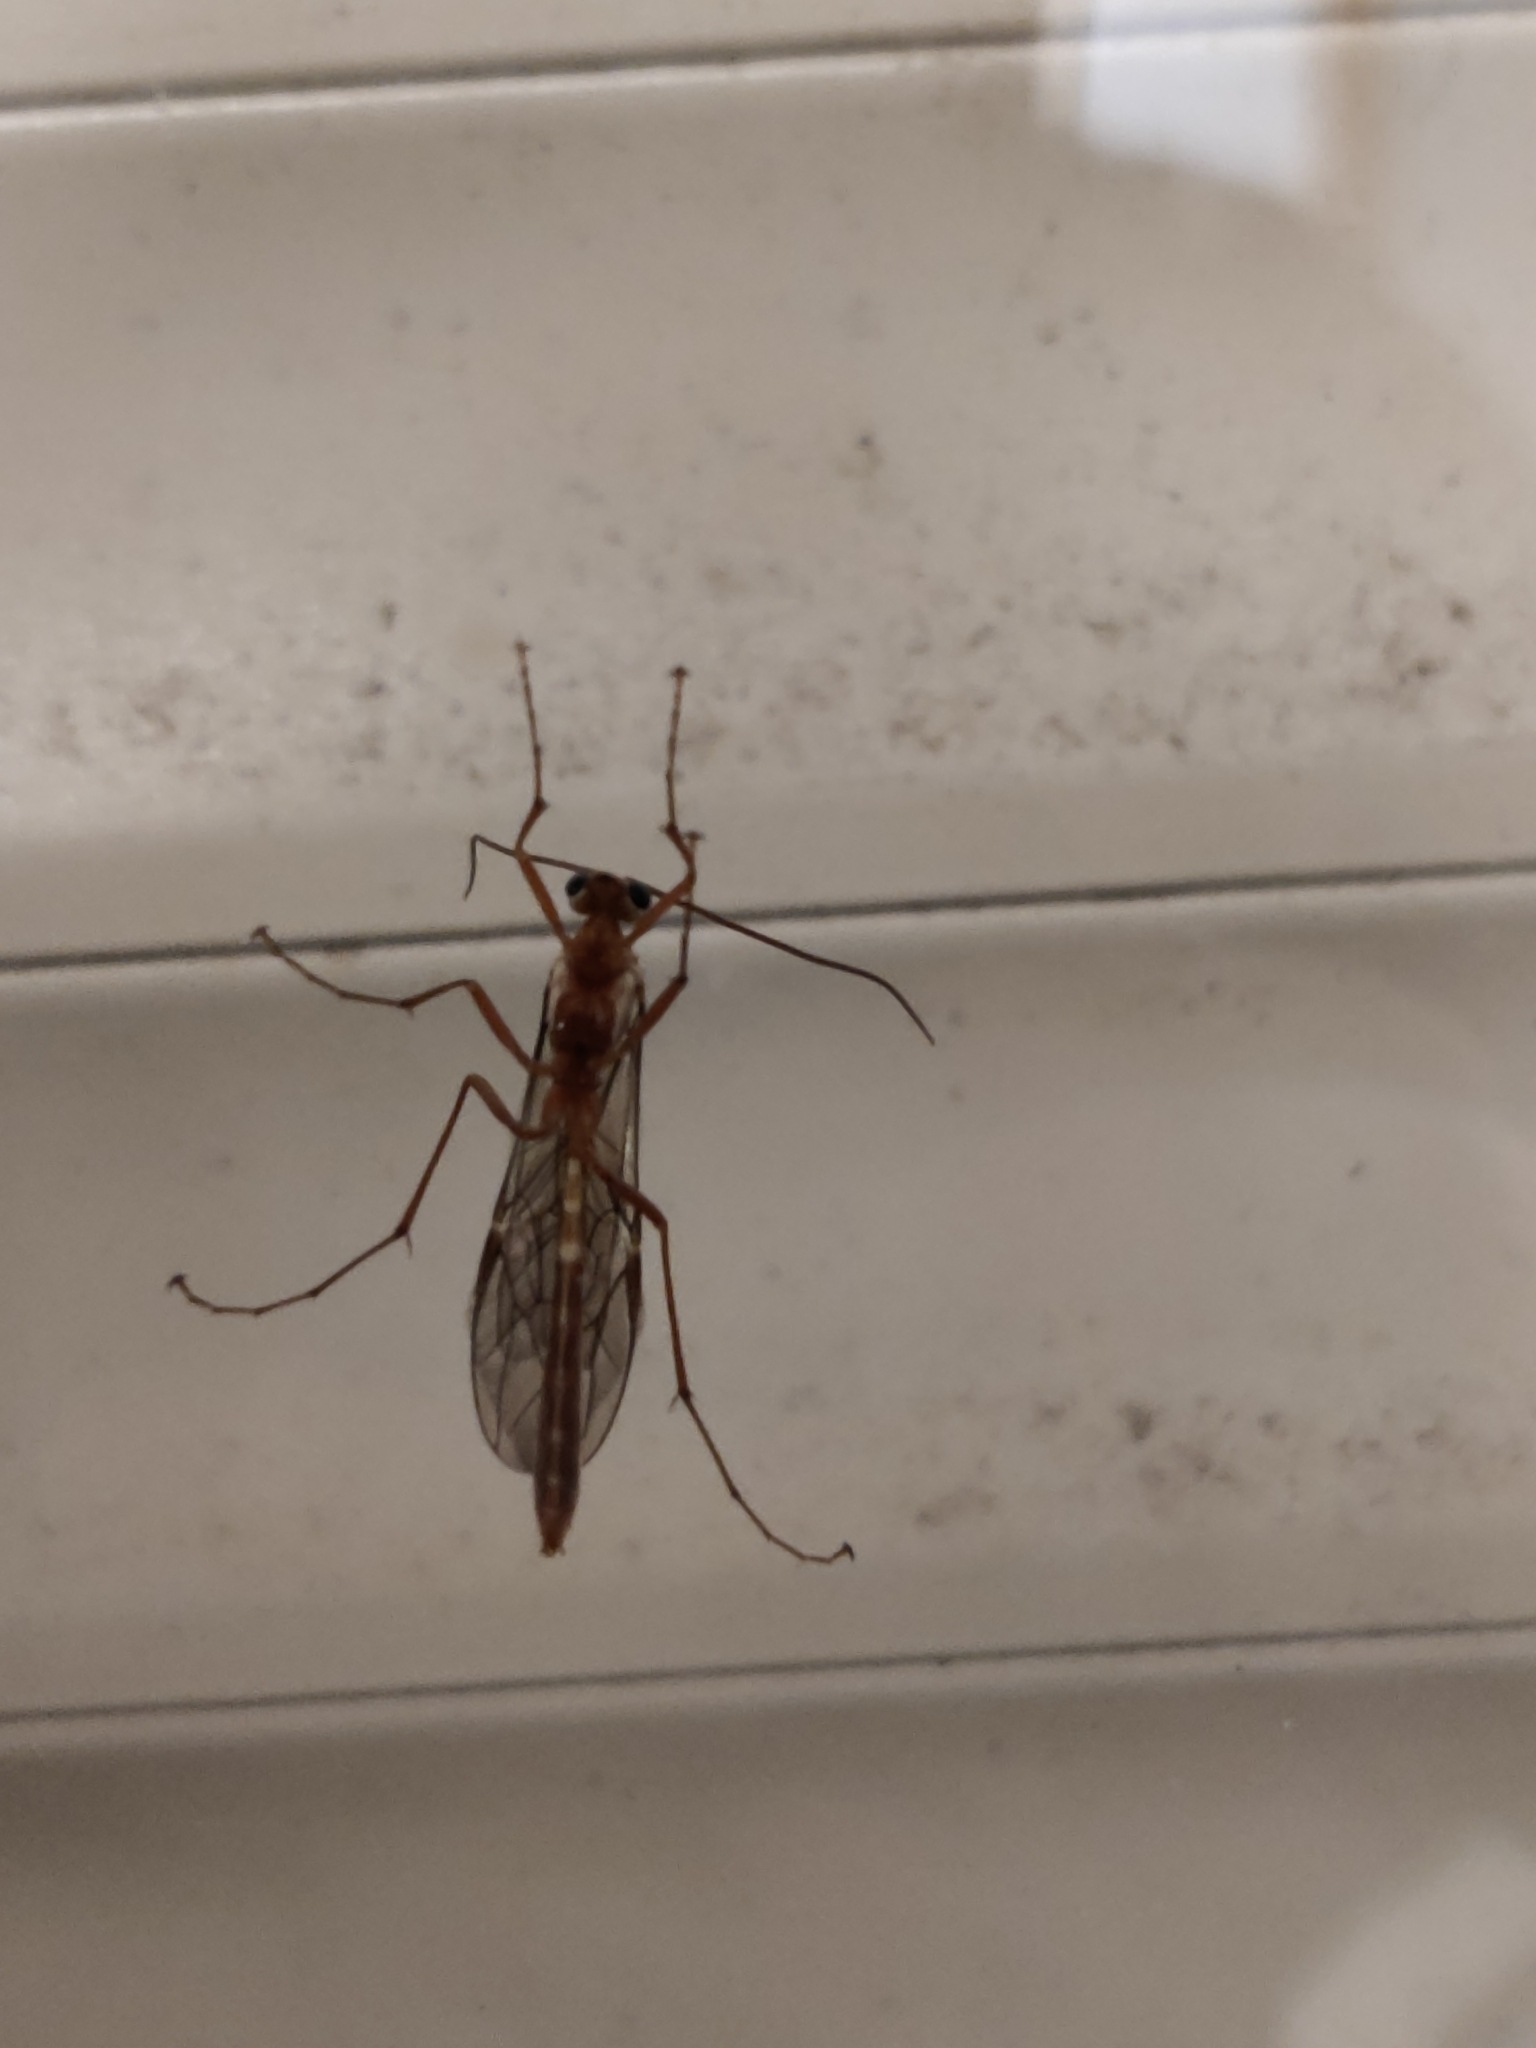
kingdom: Animalia
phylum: Arthropoda
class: Insecta
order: Hymenoptera
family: Ichneumonidae
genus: Ophion
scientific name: Ophion
